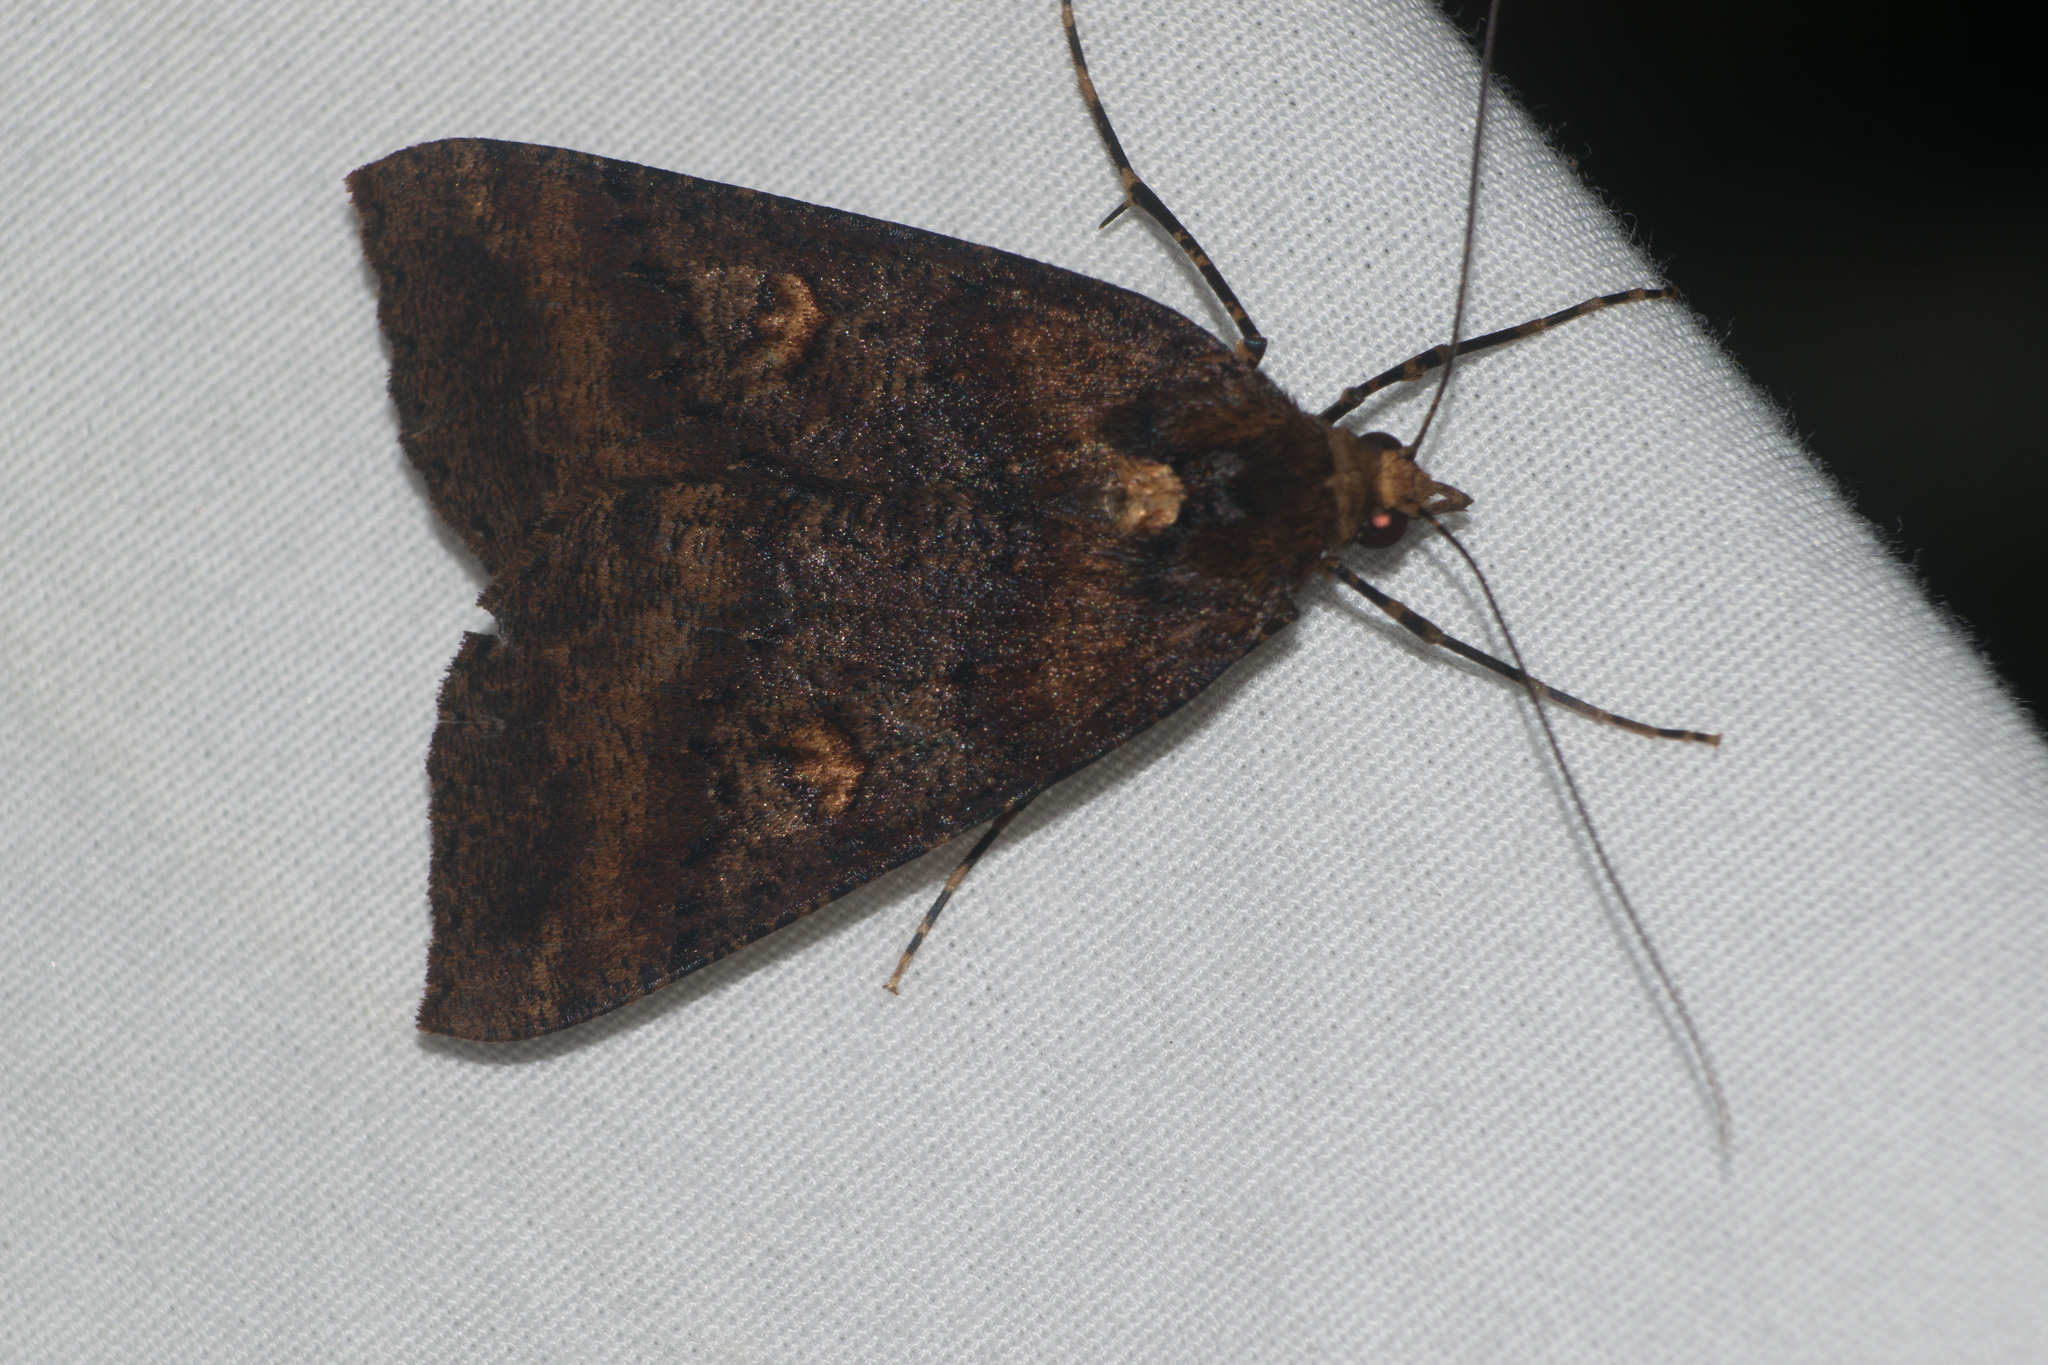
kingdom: Animalia
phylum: Arthropoda
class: Insecta
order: Lepidoptera
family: Geometridae
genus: Scotorythra
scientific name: Scotorythra rara
